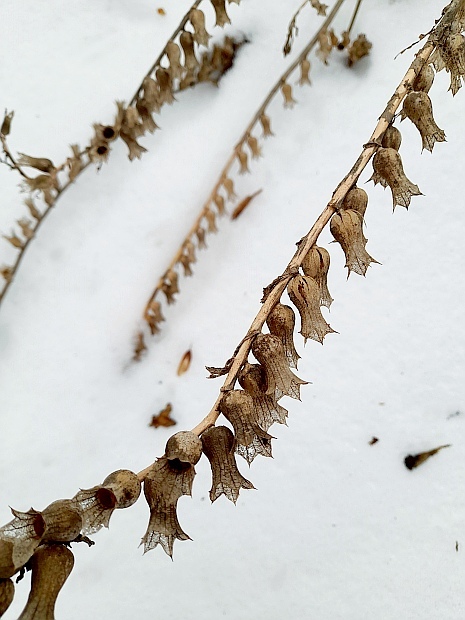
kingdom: Plantae
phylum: Tracheophyta
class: Magnoliopsida
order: Solanales
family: Solanaceae
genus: Hyoscyamus
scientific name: Hyoscyamus niger
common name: Henbane
